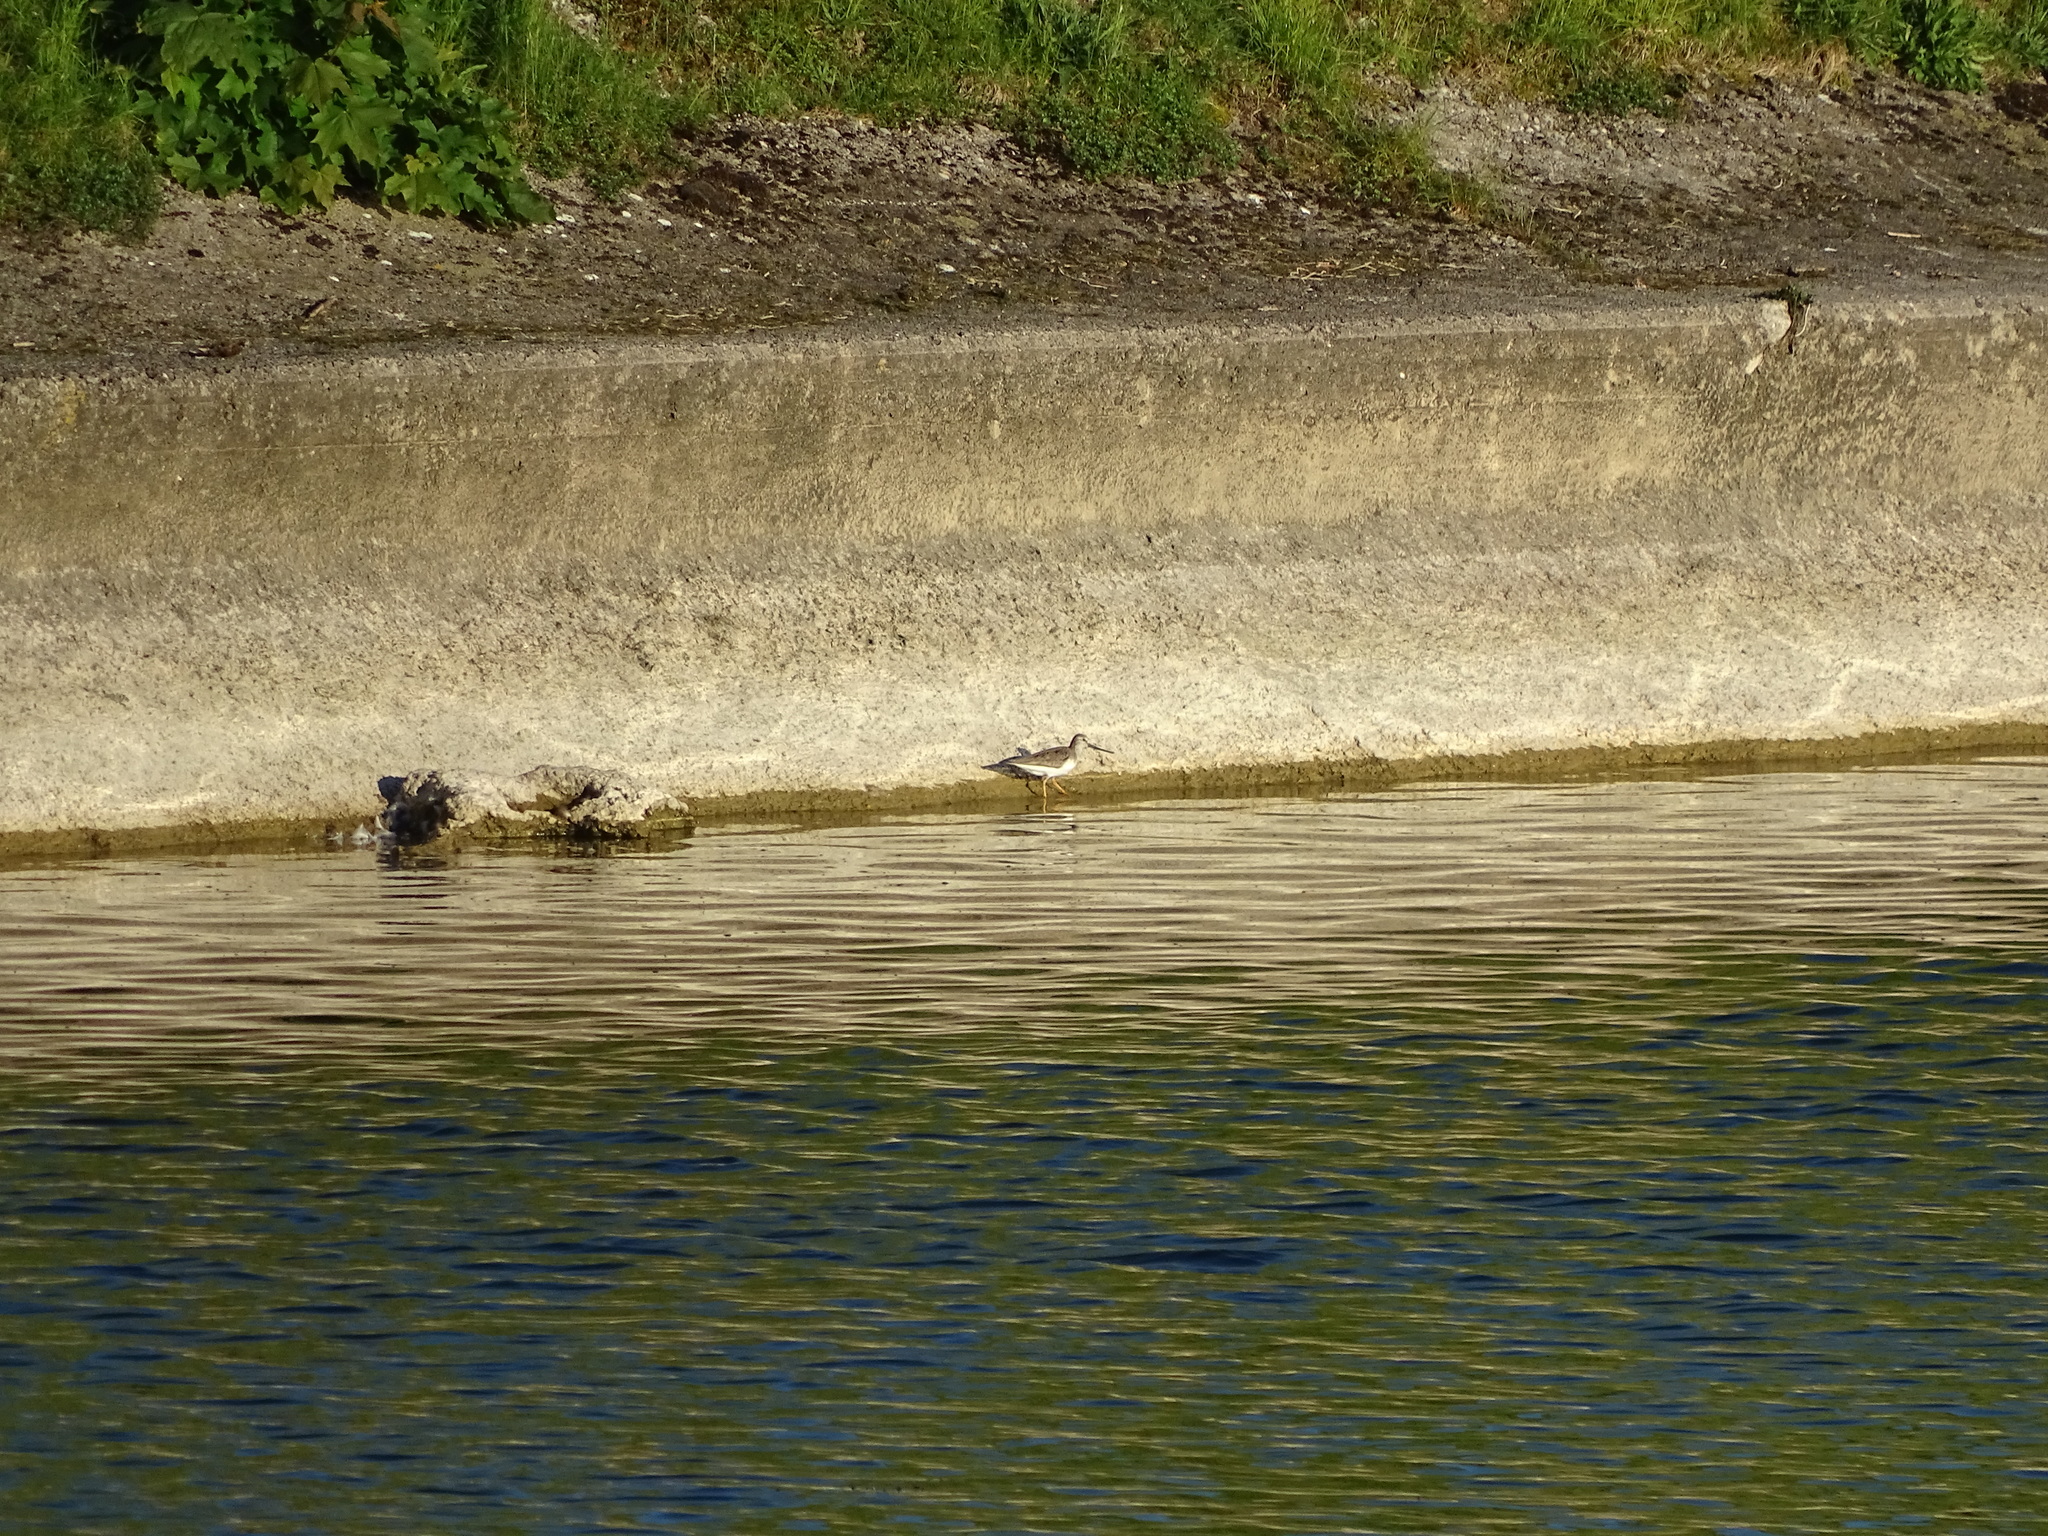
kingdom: Animalia
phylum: Chordata
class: Aves
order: Charadriiformes
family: Scolopacidae
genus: Xenus
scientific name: Xenus cinereus
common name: Terek sandpiper
